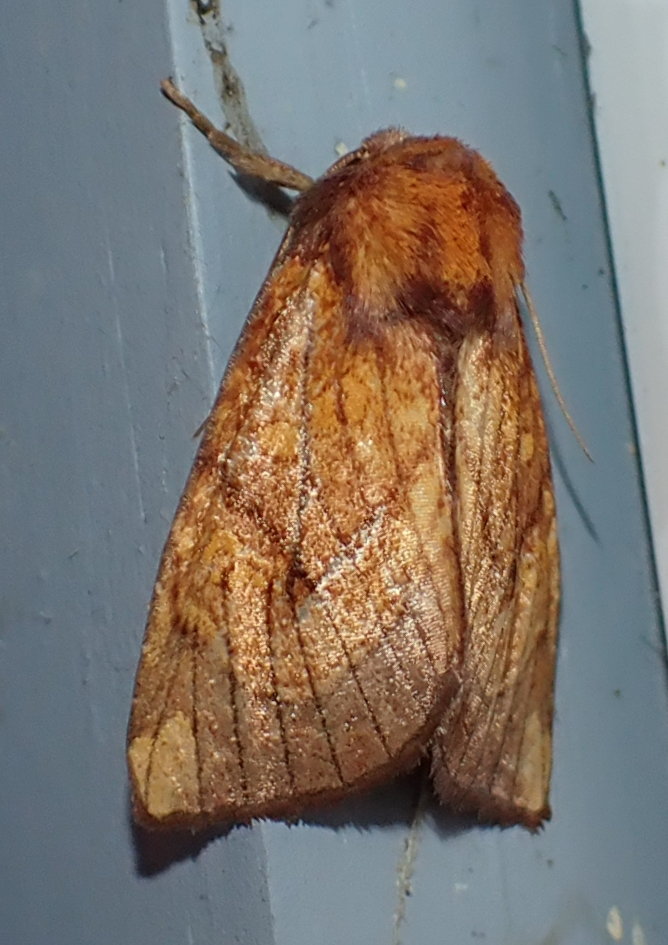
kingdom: Animalia
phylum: Arthropoda
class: Insecta
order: Lepidoptera
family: Noctuidae
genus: Papaipema
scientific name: Papaipema inquaesita
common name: Sensitive fern borer moth
